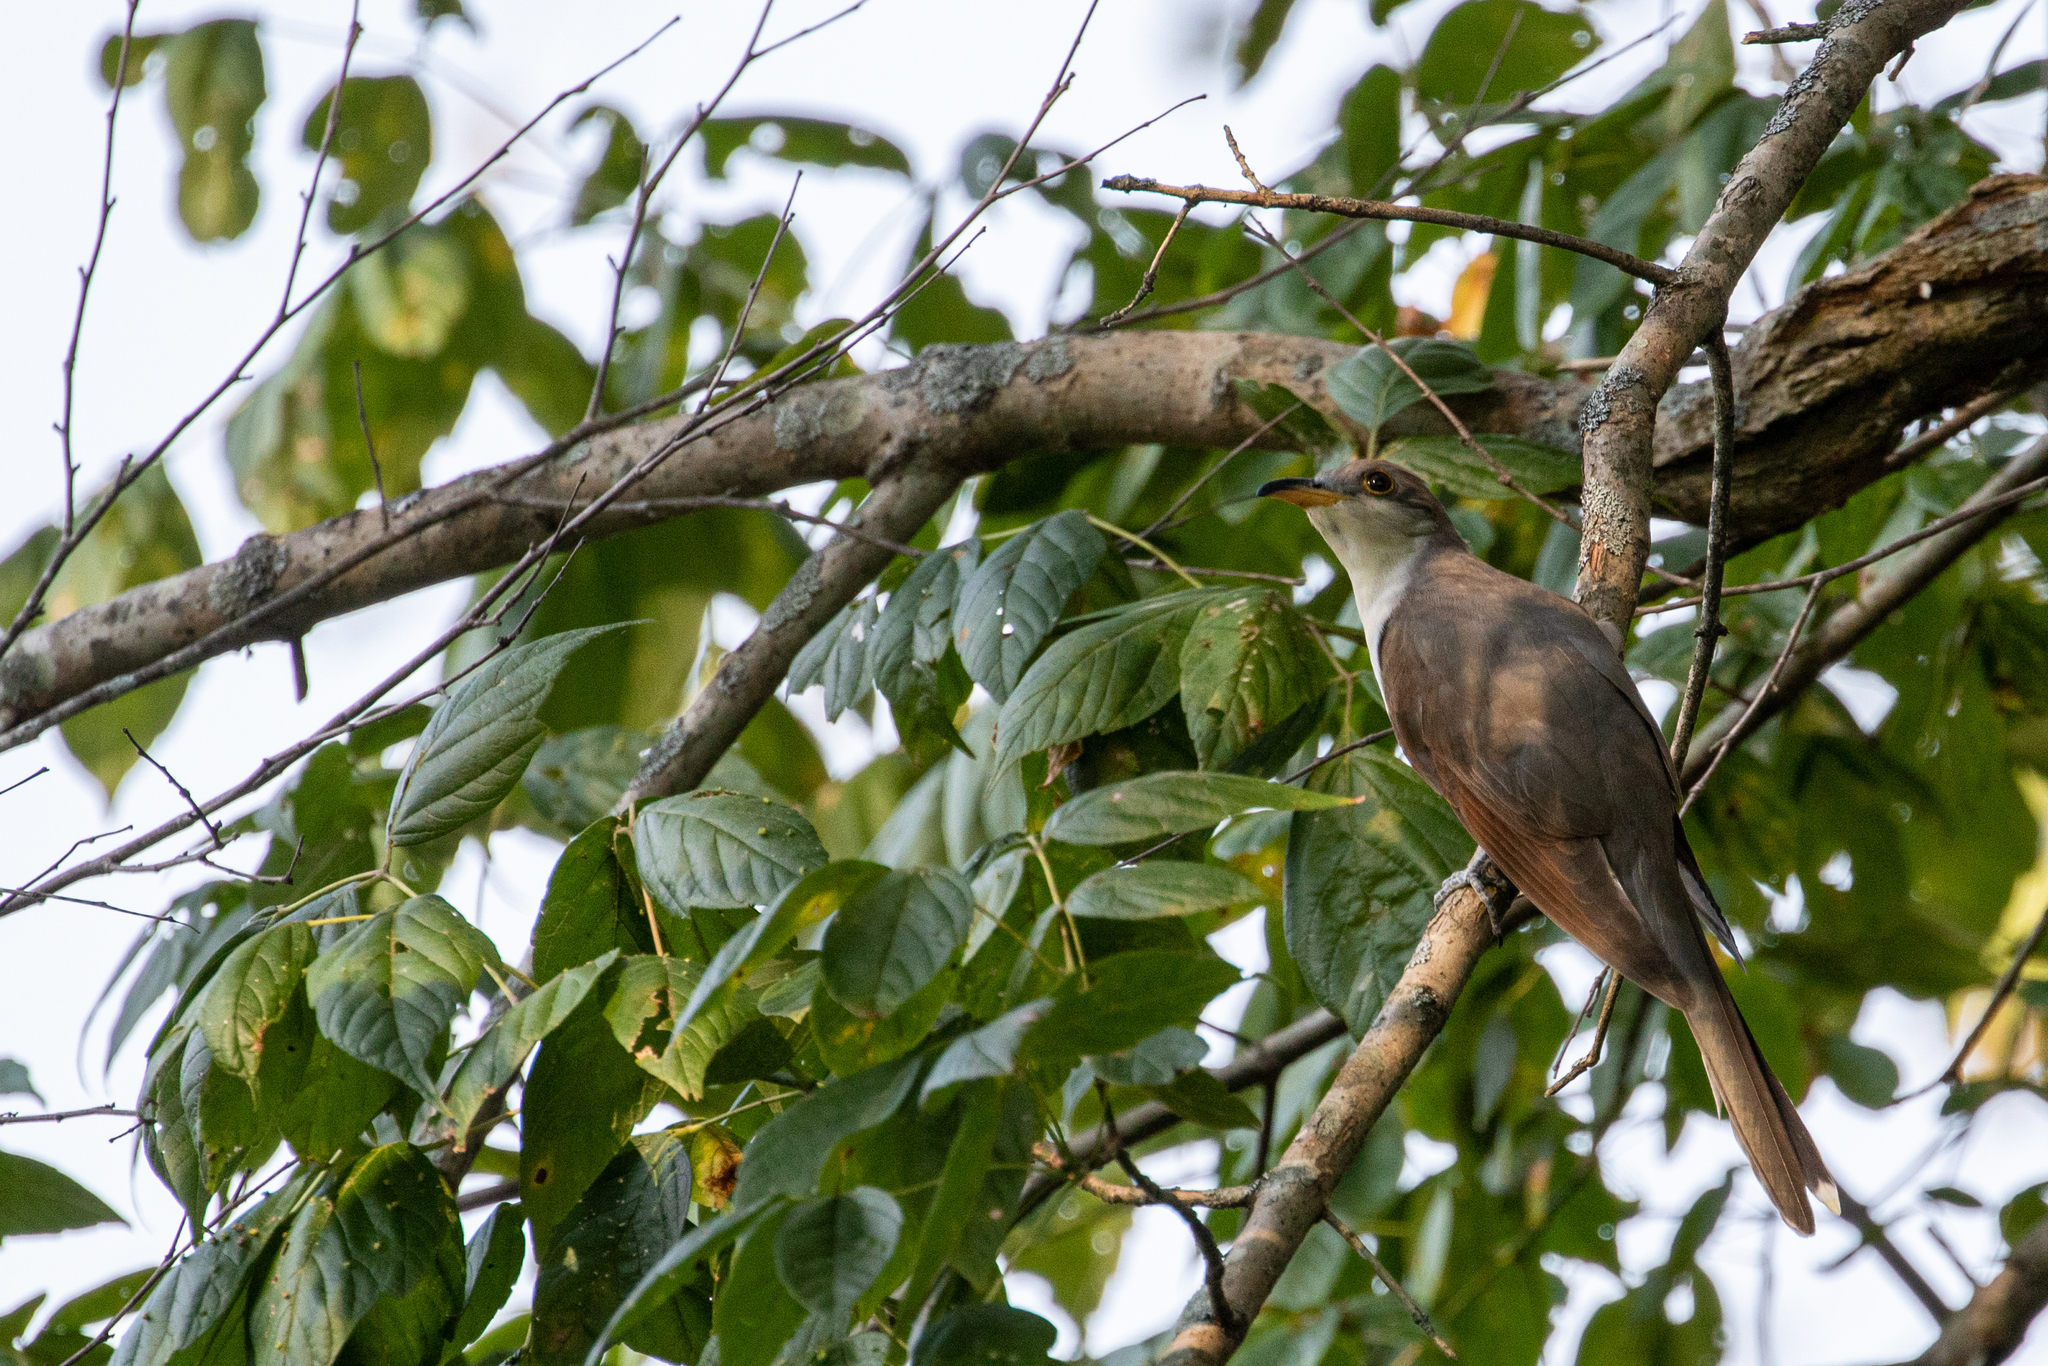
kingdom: Animalia
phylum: Chordata
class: Aves
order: Cuculiformes
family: Cuculidae
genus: Coccyzus
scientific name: Coccyzus americanus
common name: Yellow-billed cuckoo
